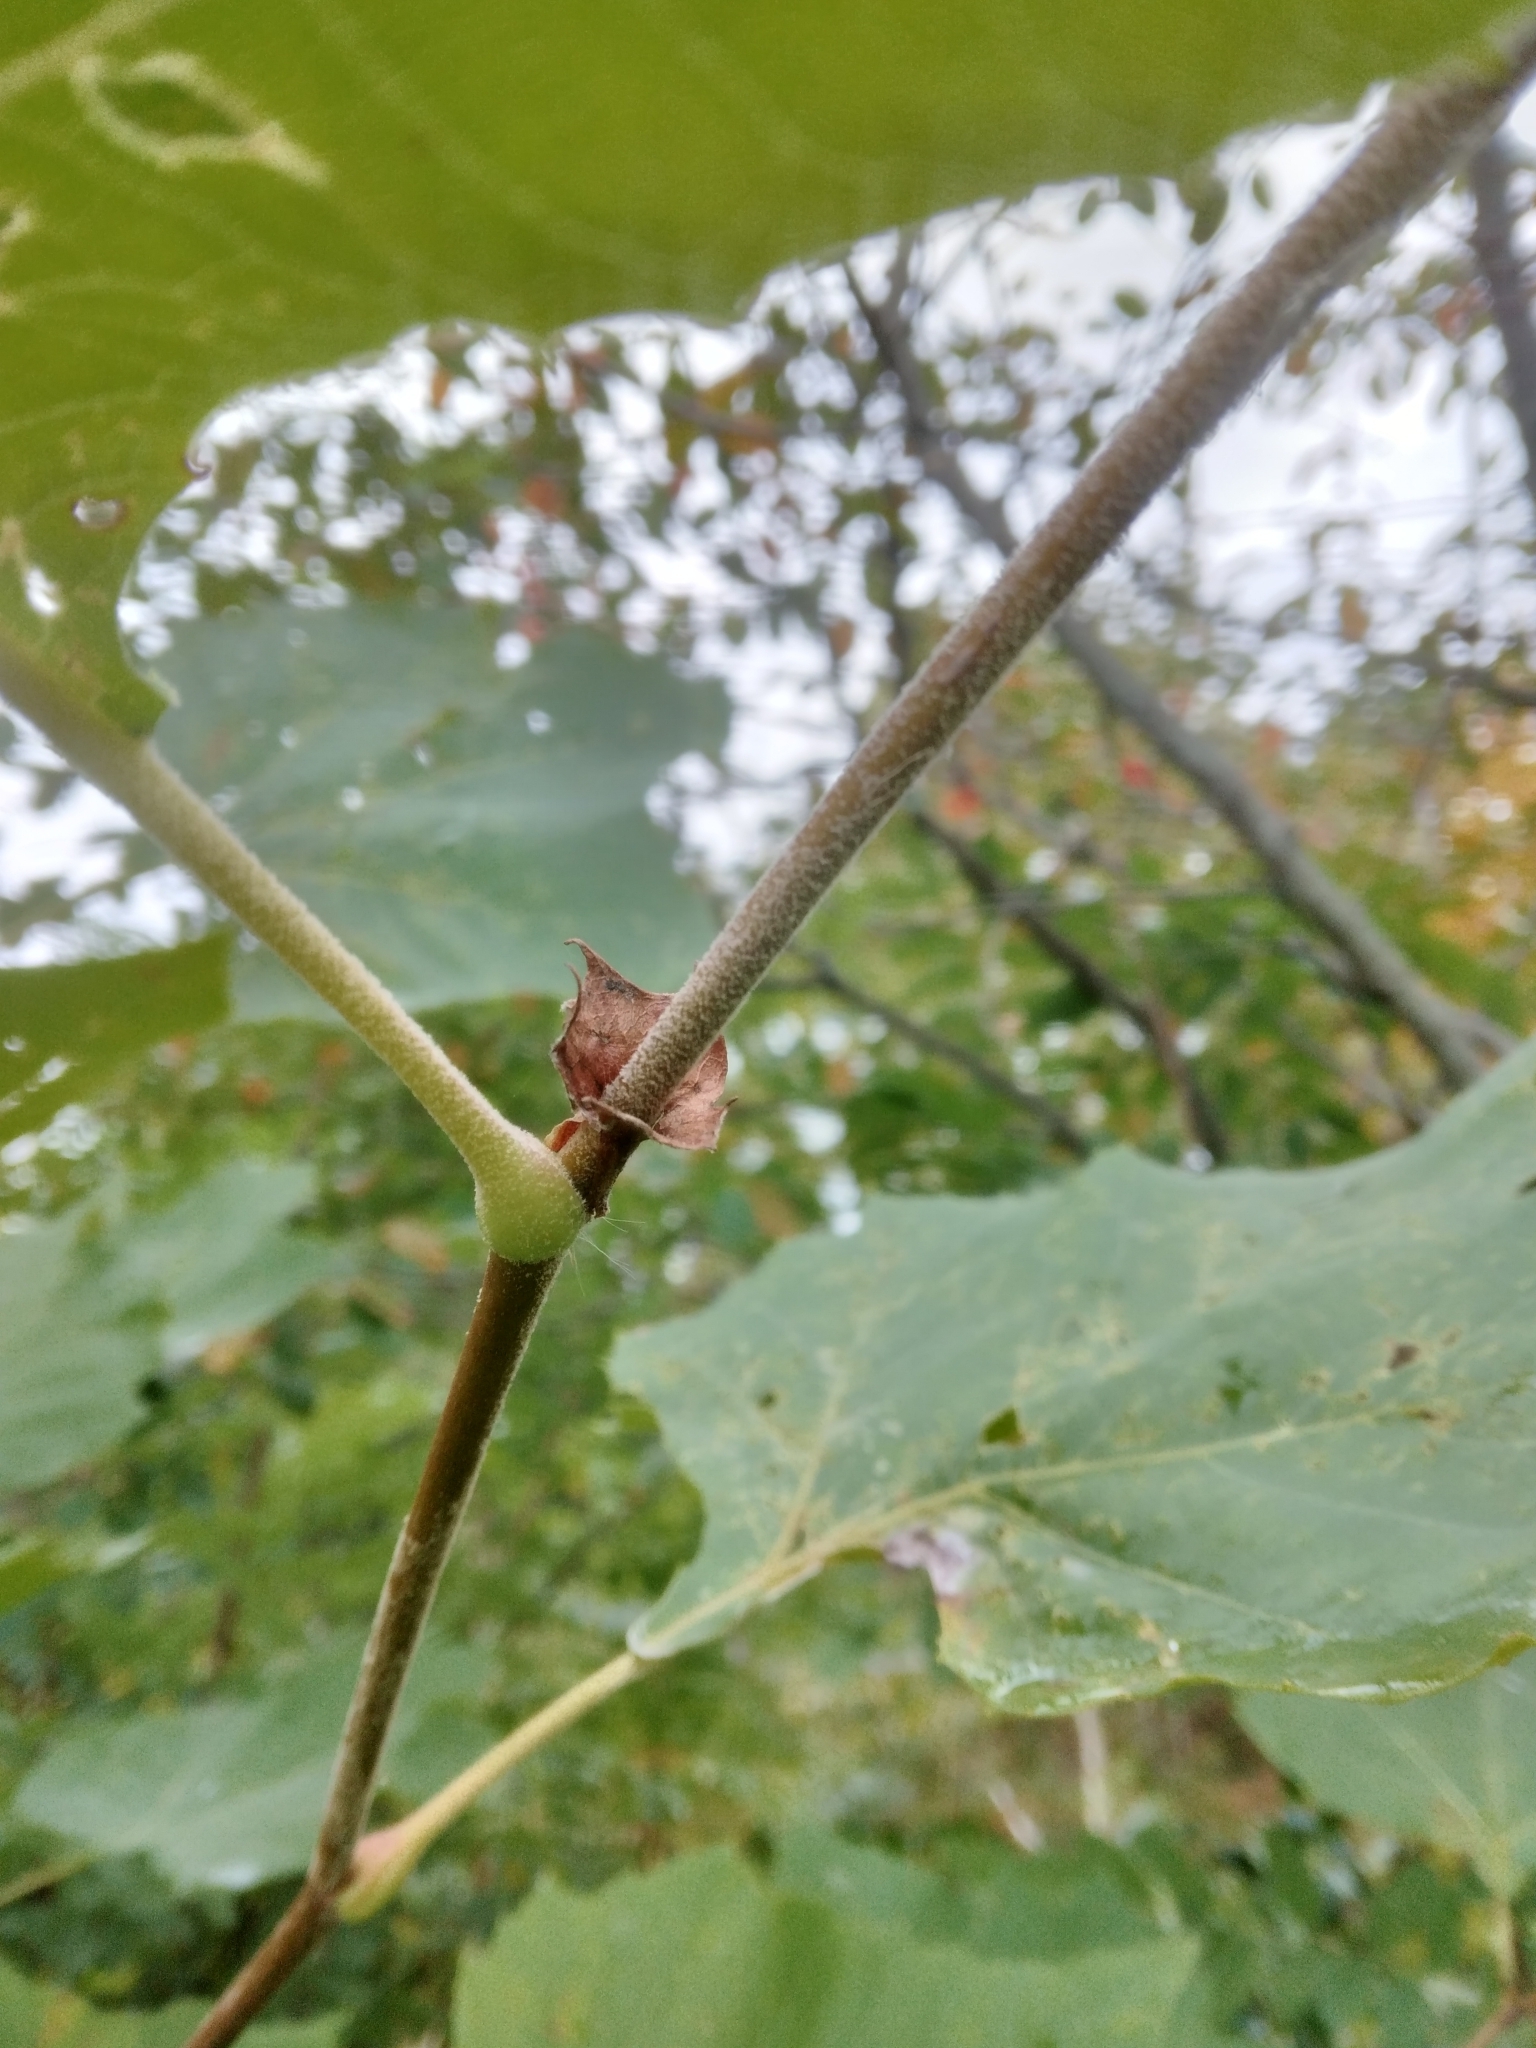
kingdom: Plantae
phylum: Tracheophyta
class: Magnoliopsida
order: Proteales
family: Platanaceae
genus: Platanus
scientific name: Platanus occidentalis
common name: American sycamore
